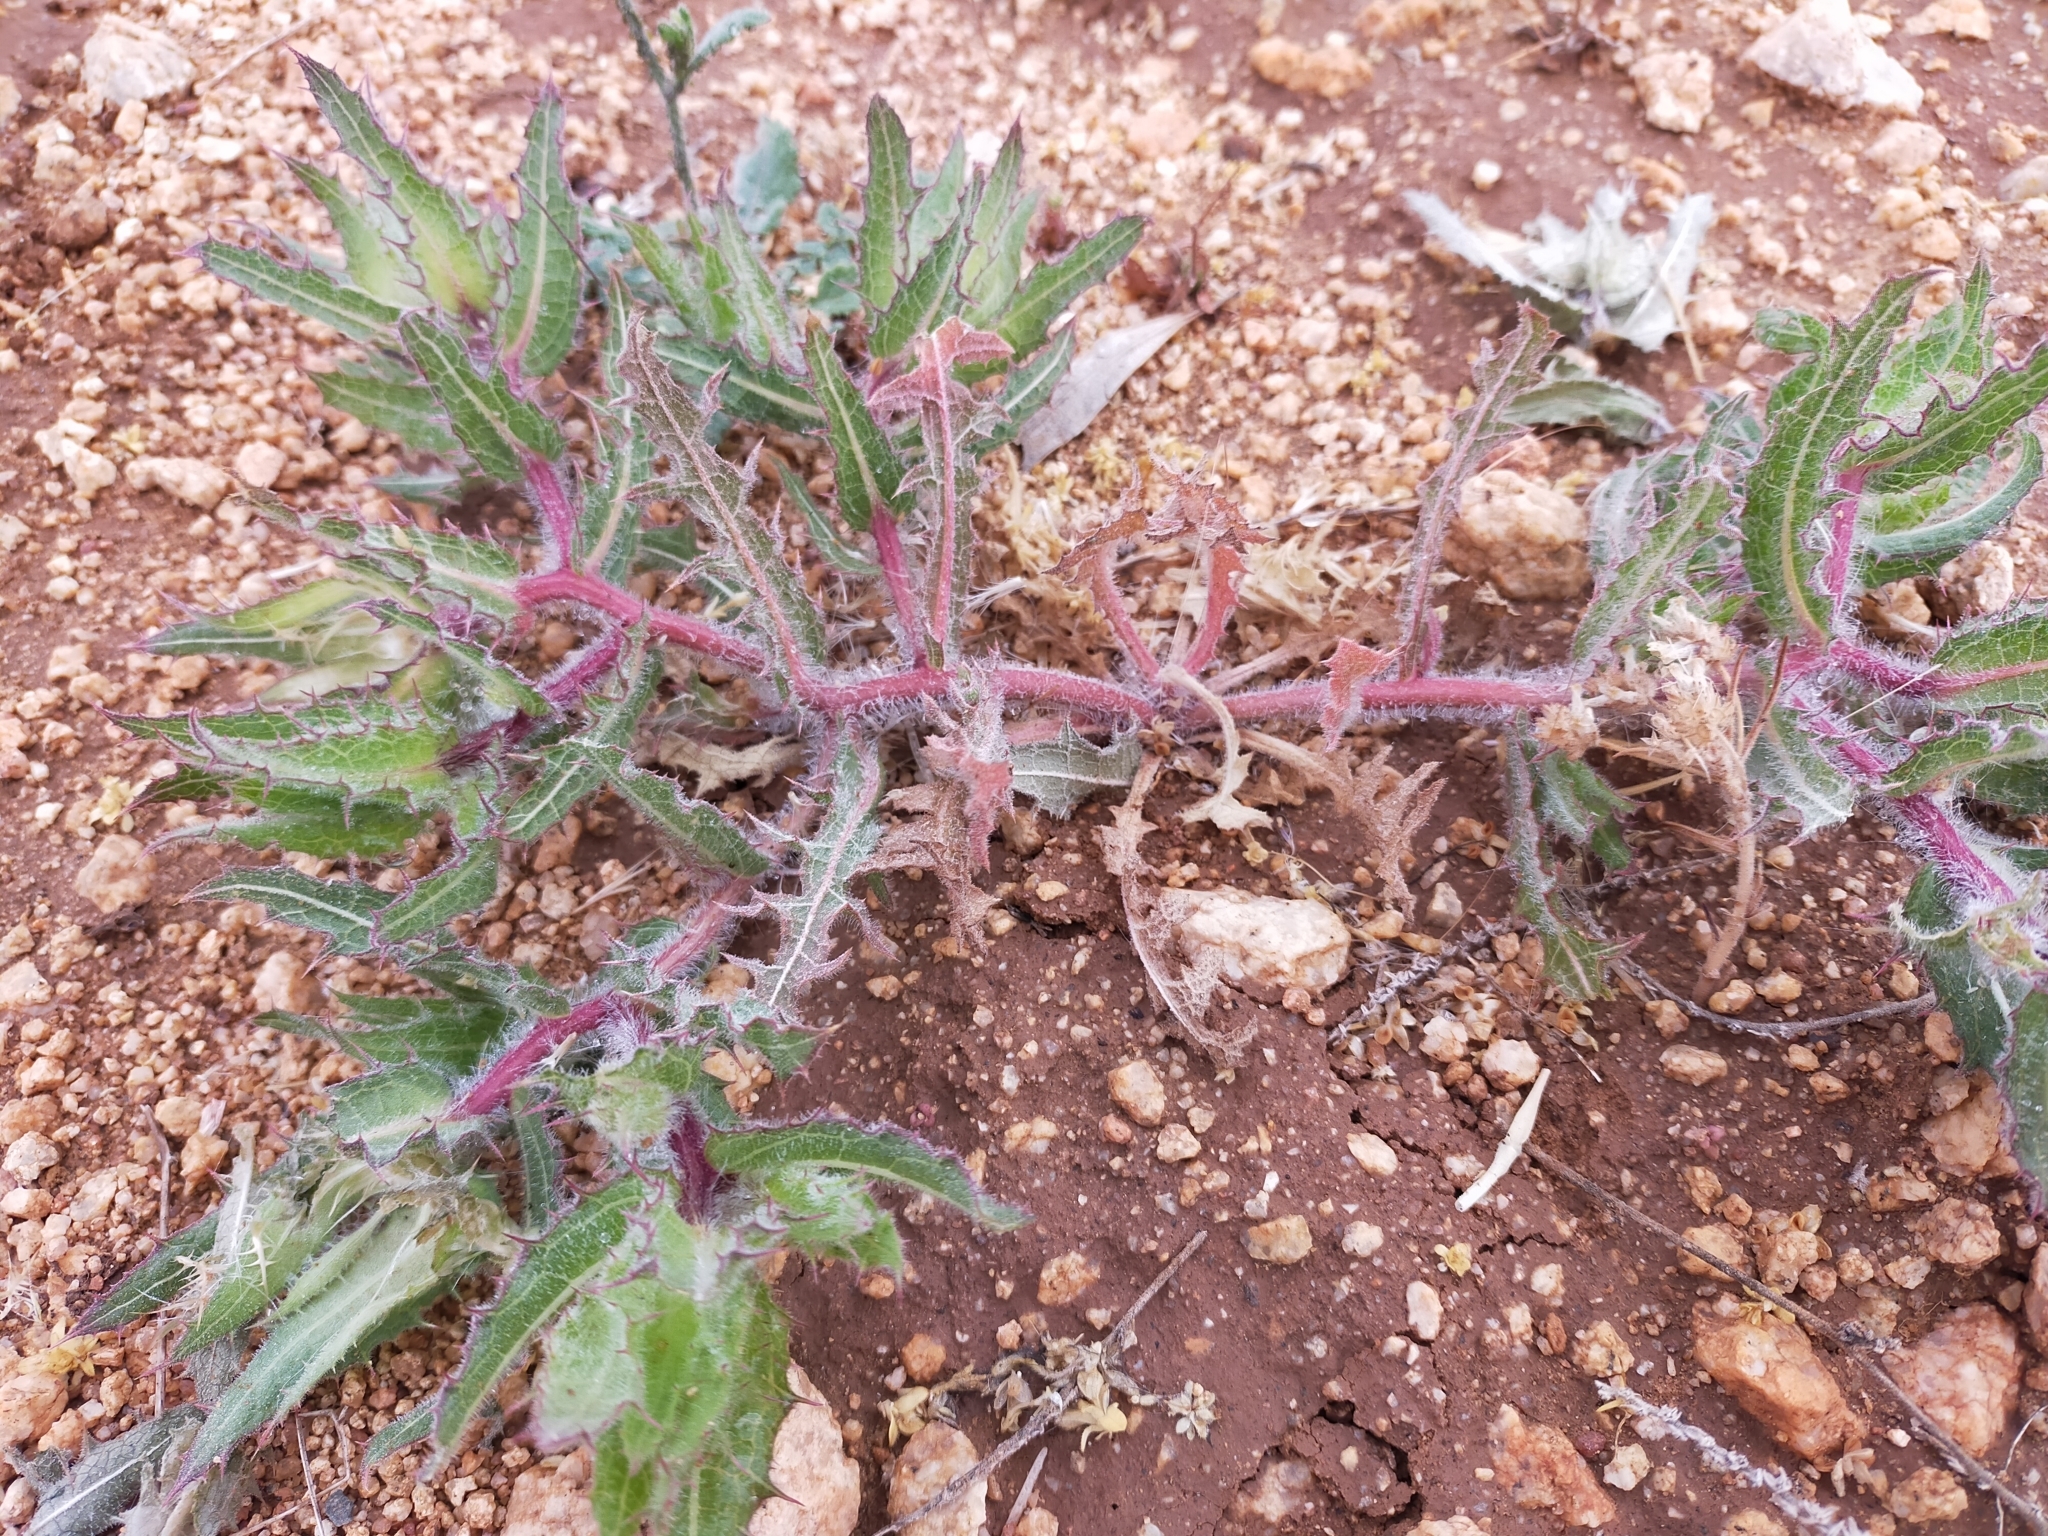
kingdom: Plantae
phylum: Tracheophyta
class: Magnoliopsida
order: Asterales
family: Asteraceae
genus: Centaurea
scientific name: Centaurea benedicta
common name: Blessed thistle
